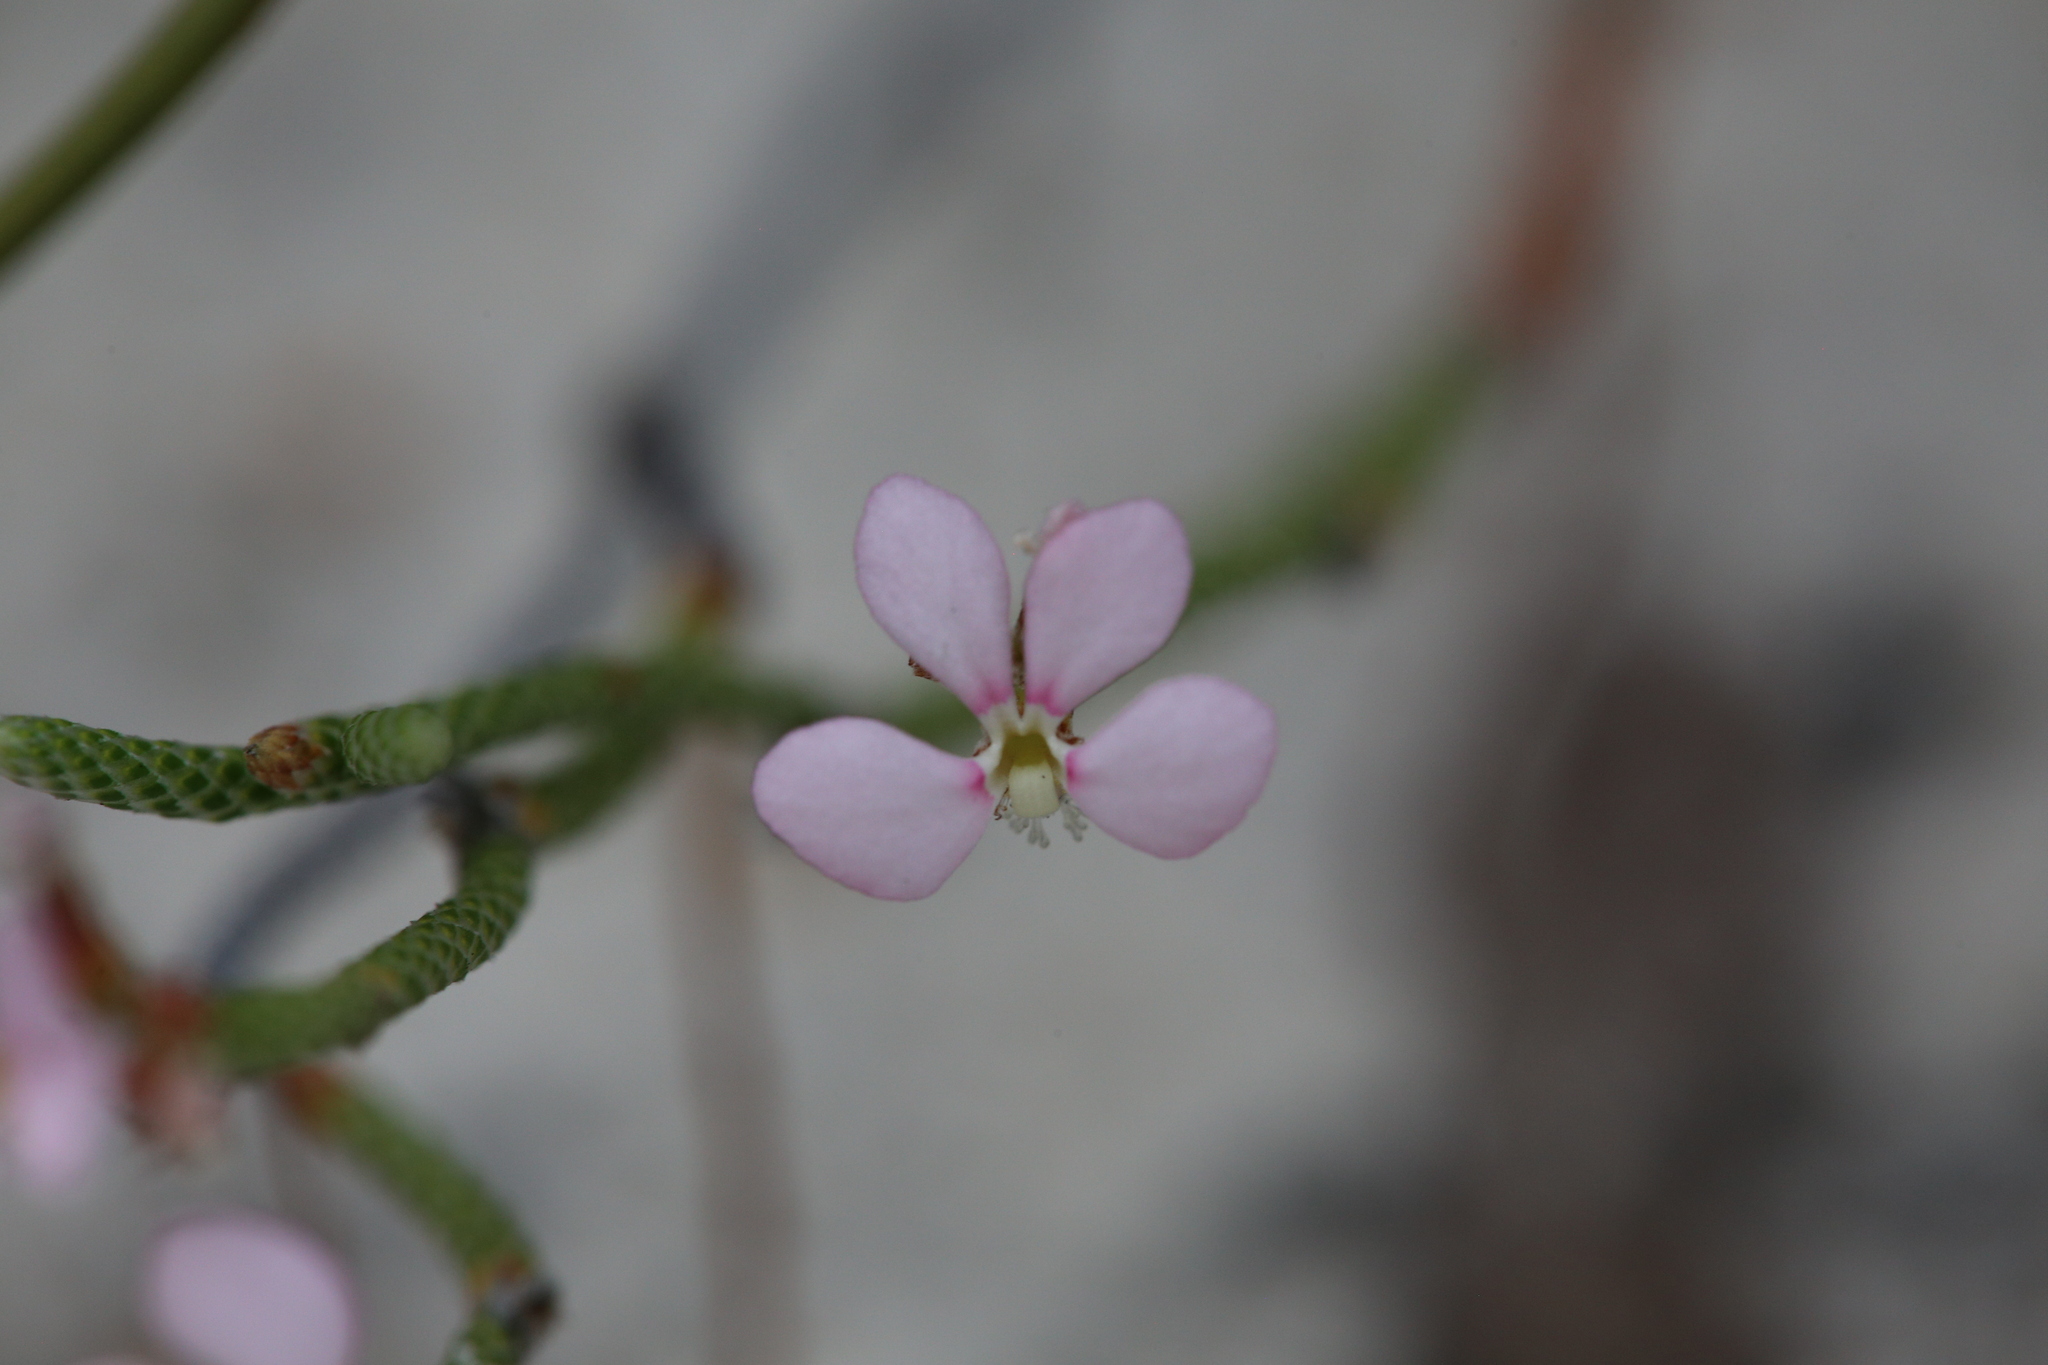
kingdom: Plantae
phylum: Tracheophyta
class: Magnoliopsida
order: Asterales
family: Stylidiaceae
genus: Stylidium
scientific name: Stylidium preissii
